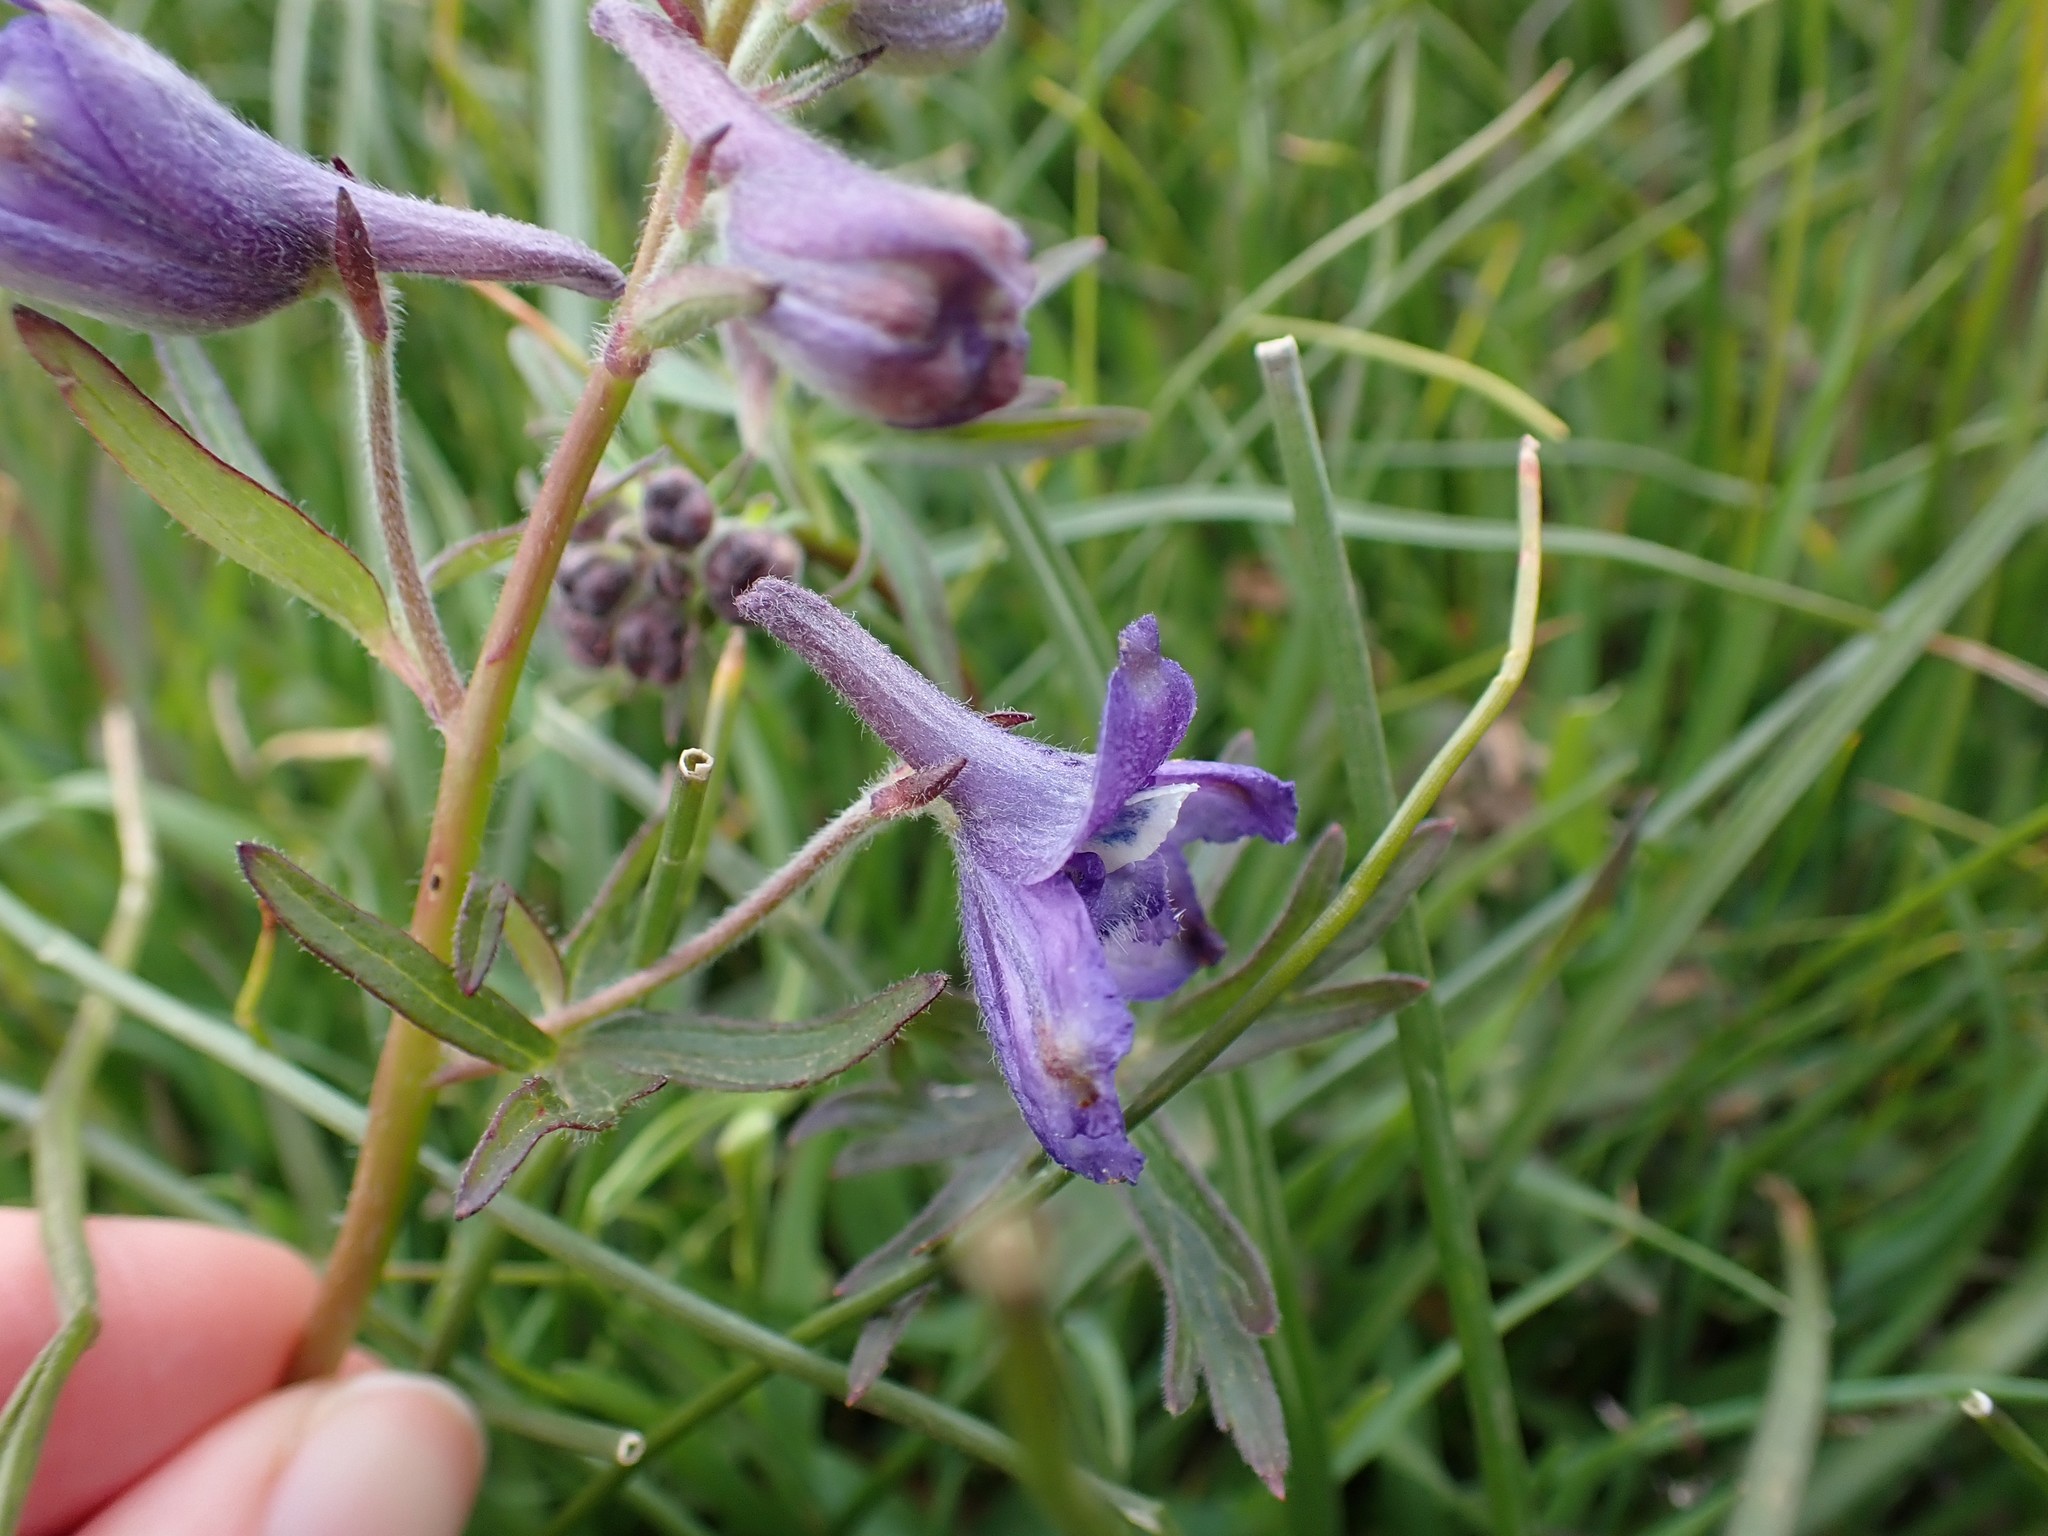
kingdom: Plantae
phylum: Tracheophyta
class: Magnoliopsida
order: Ranunculales
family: Ranunculaceae
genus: Delphinium
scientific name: Delphinium menziesii
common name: Menzies's larkspur
